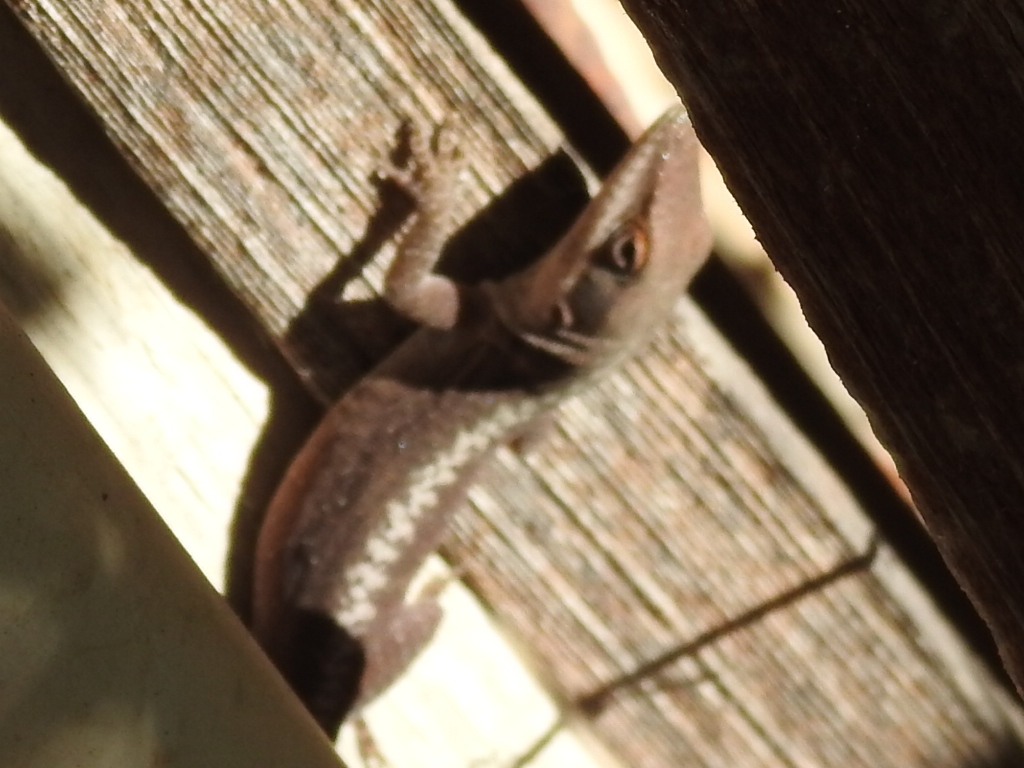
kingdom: Animalia
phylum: Chordata
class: Squamata
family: Dactyloidae
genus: Anolis
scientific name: Anolis carolinensis
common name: Green anole
